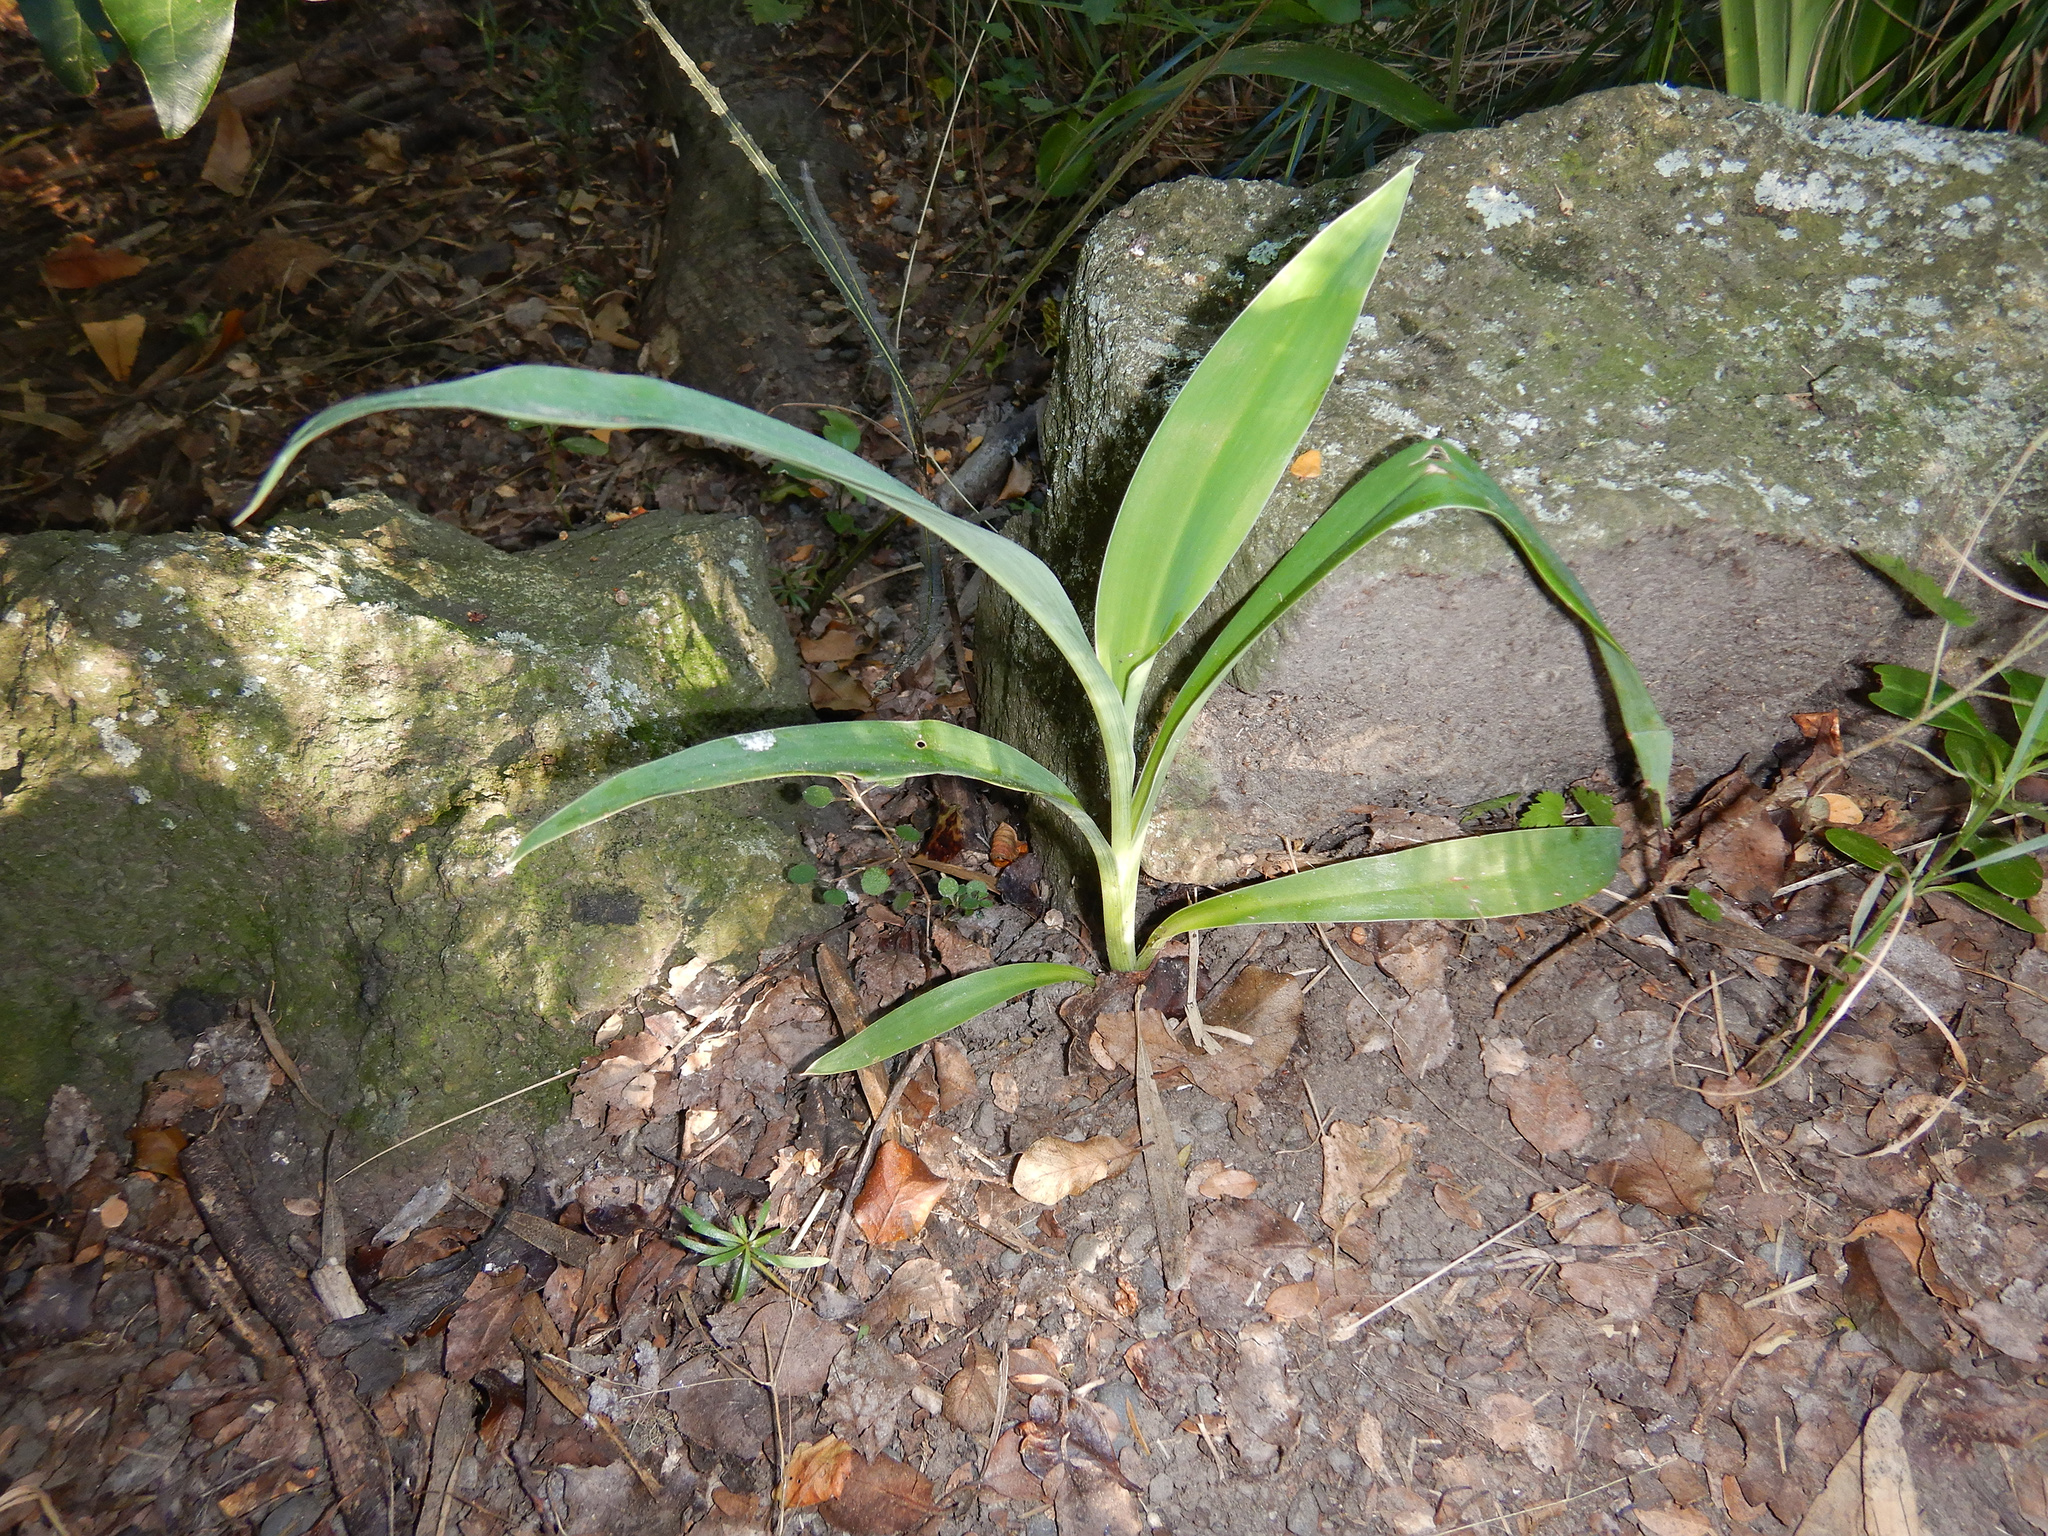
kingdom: Plantae
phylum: Tracheophyta
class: Liliopsida
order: Asparagales
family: Asparagaceae
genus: Arthropodium
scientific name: Arthropodium cirratum
